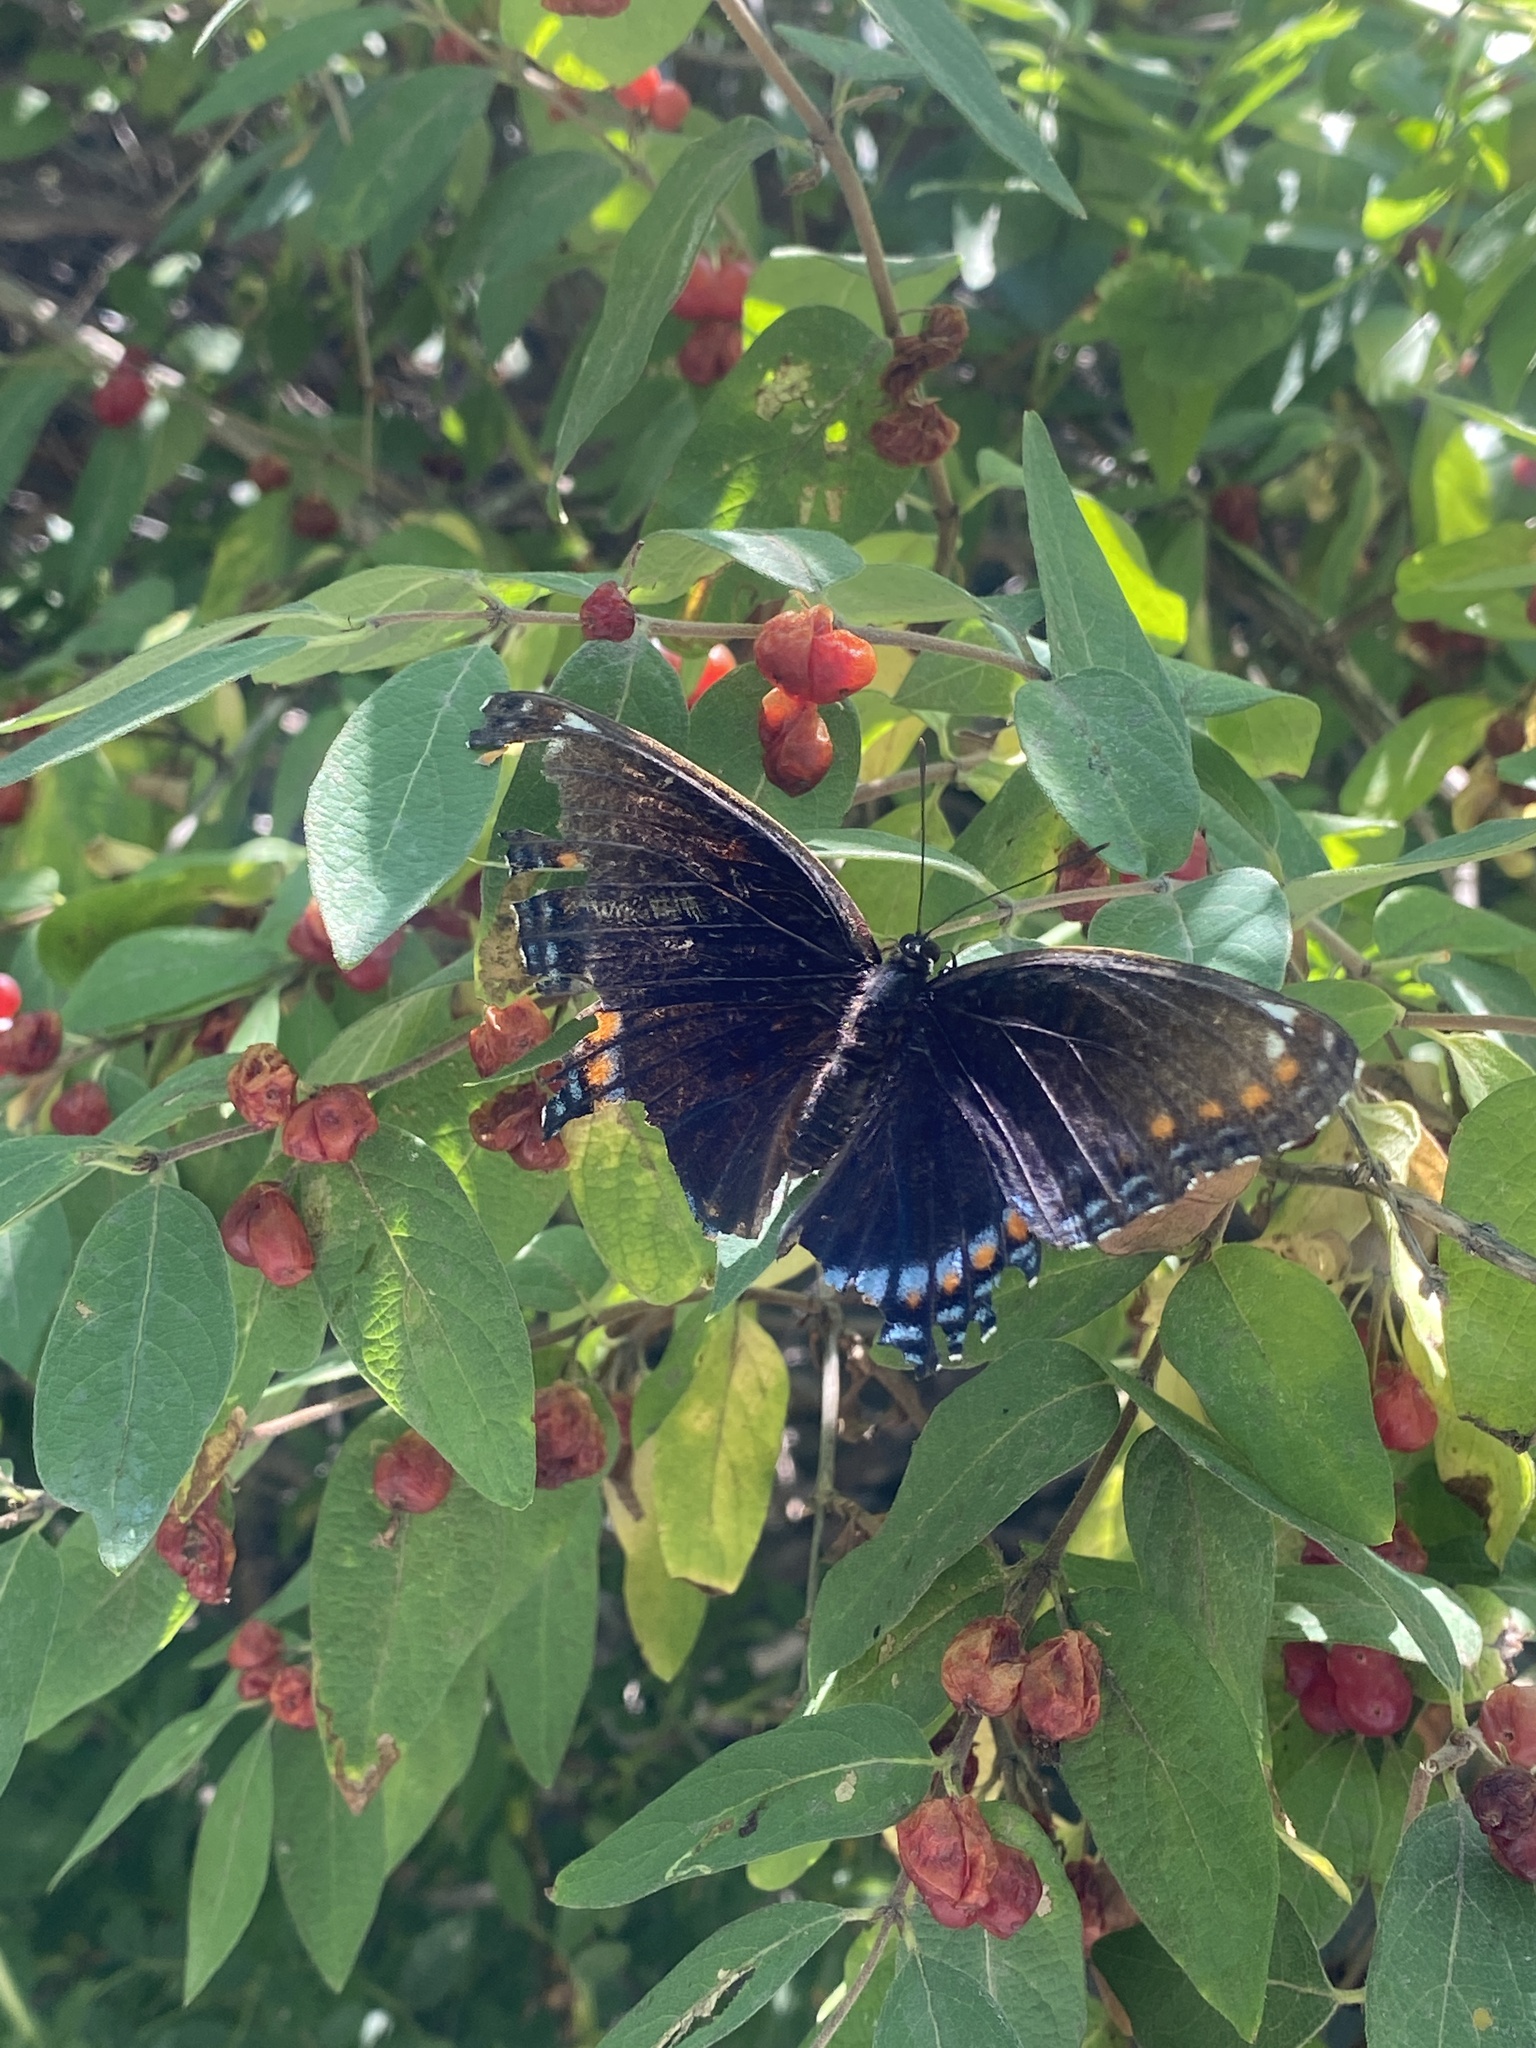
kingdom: Animalia
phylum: Arthropoda
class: Insecta
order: Lepidoptera
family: Nymphalidae
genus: Limenitis
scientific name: Limenitis astyanax
